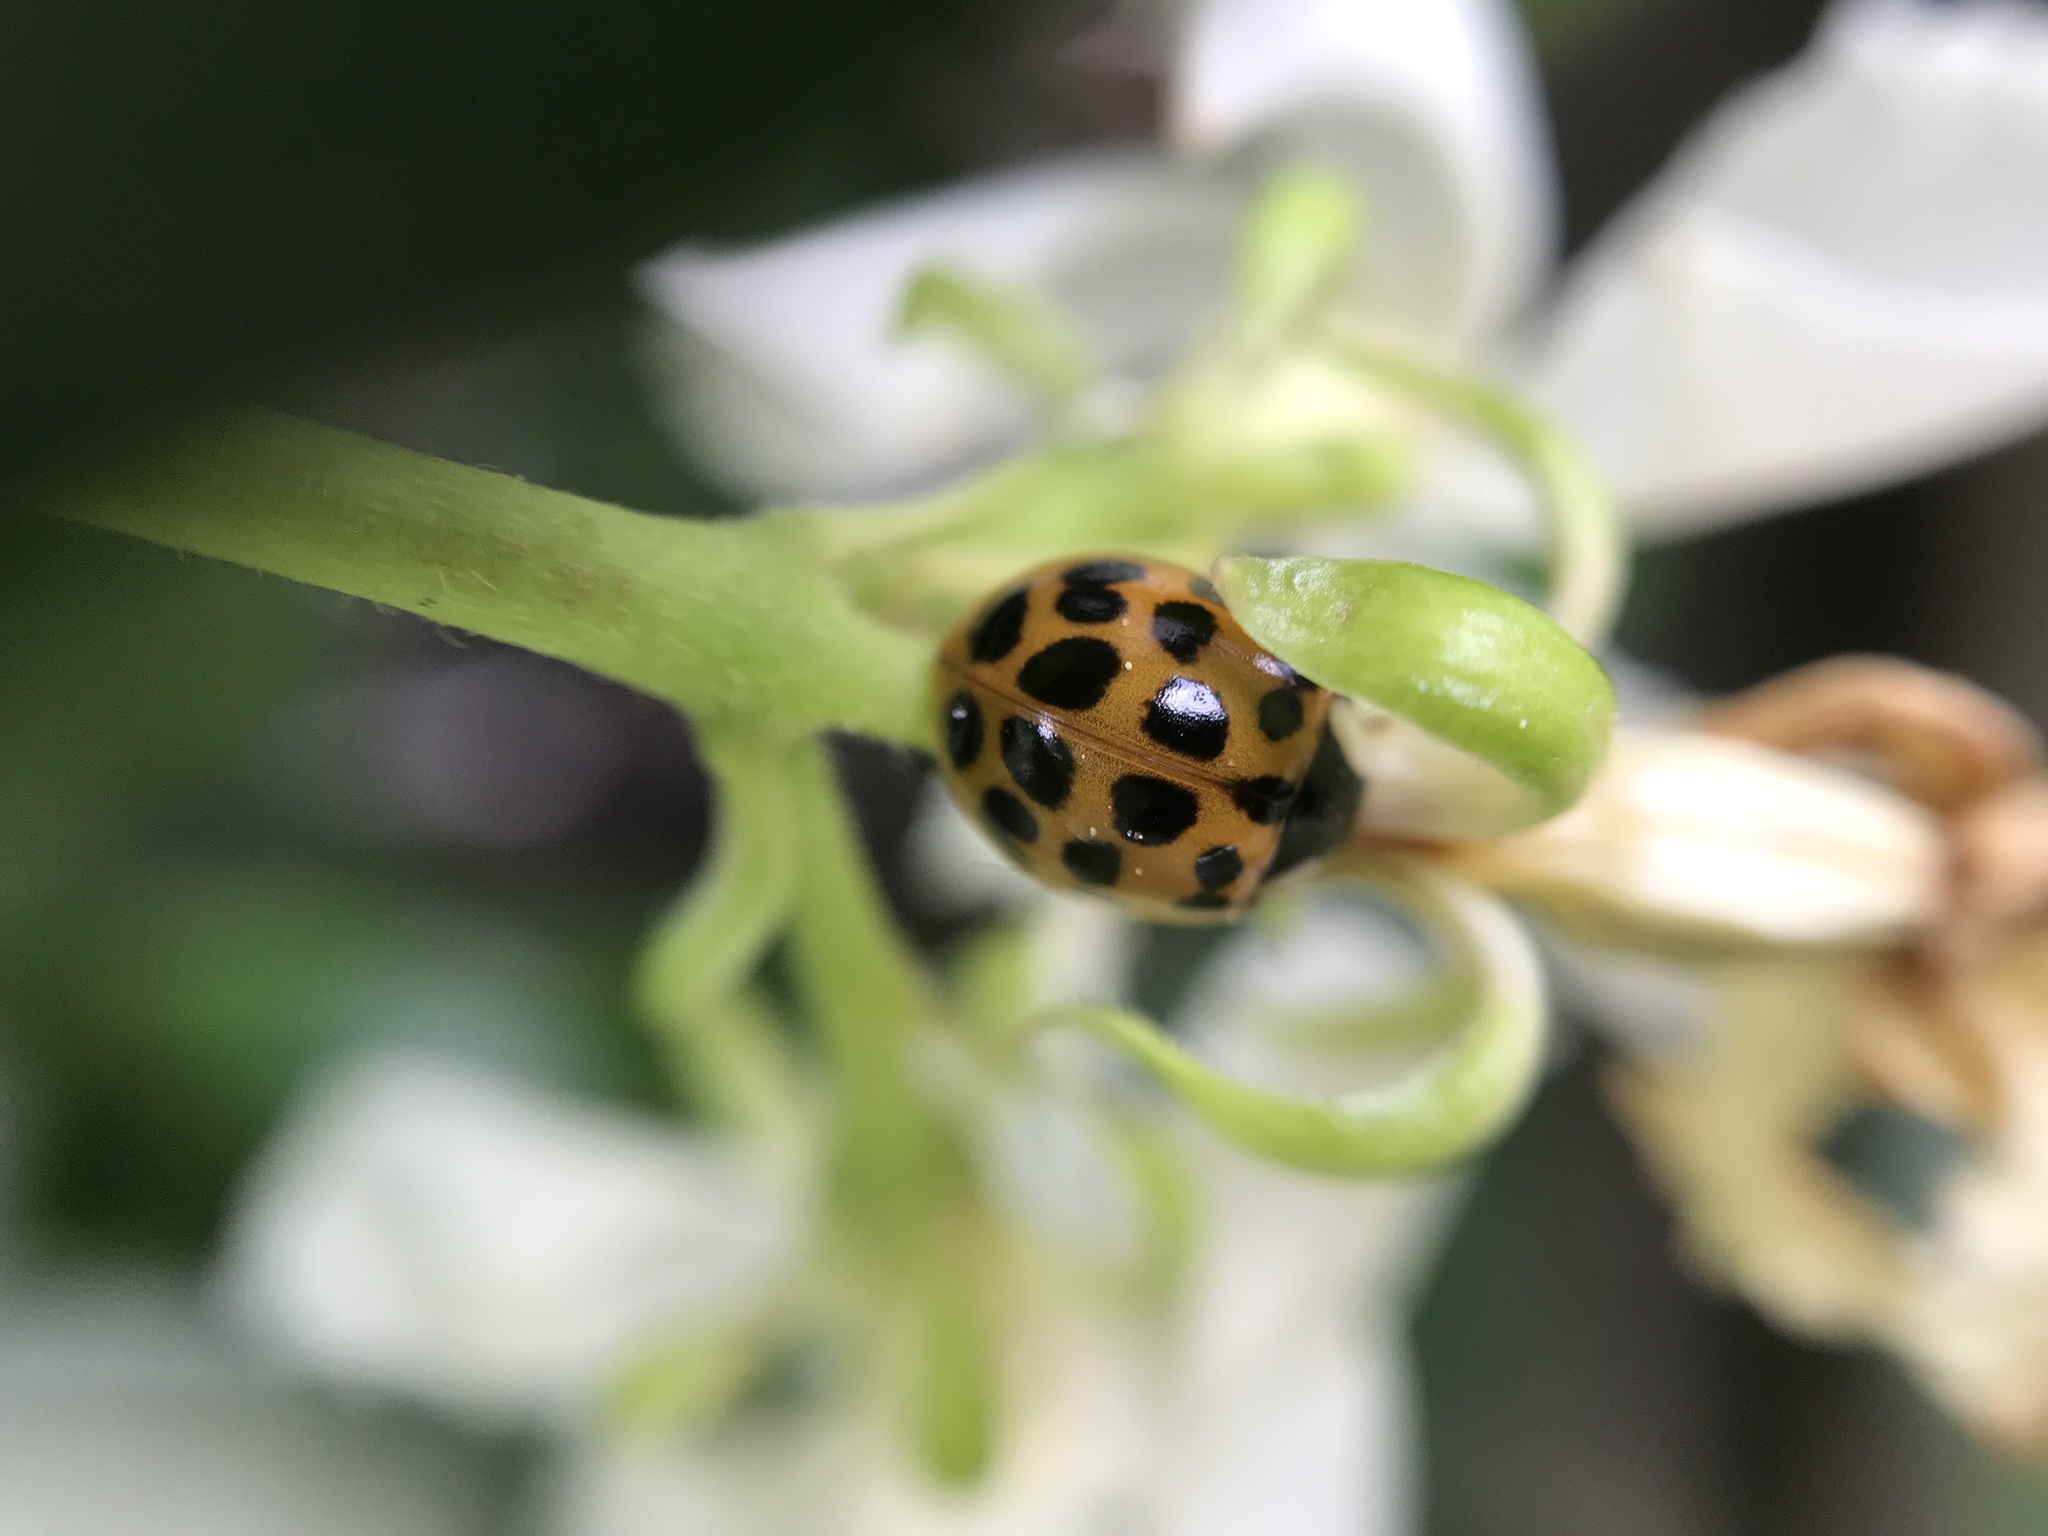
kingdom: Animalia
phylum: Arthropoda
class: Insecta
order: Coleoptera
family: Coccinellidae
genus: Harmonia
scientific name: Harmonia axyridis
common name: Harlequin ladybird
